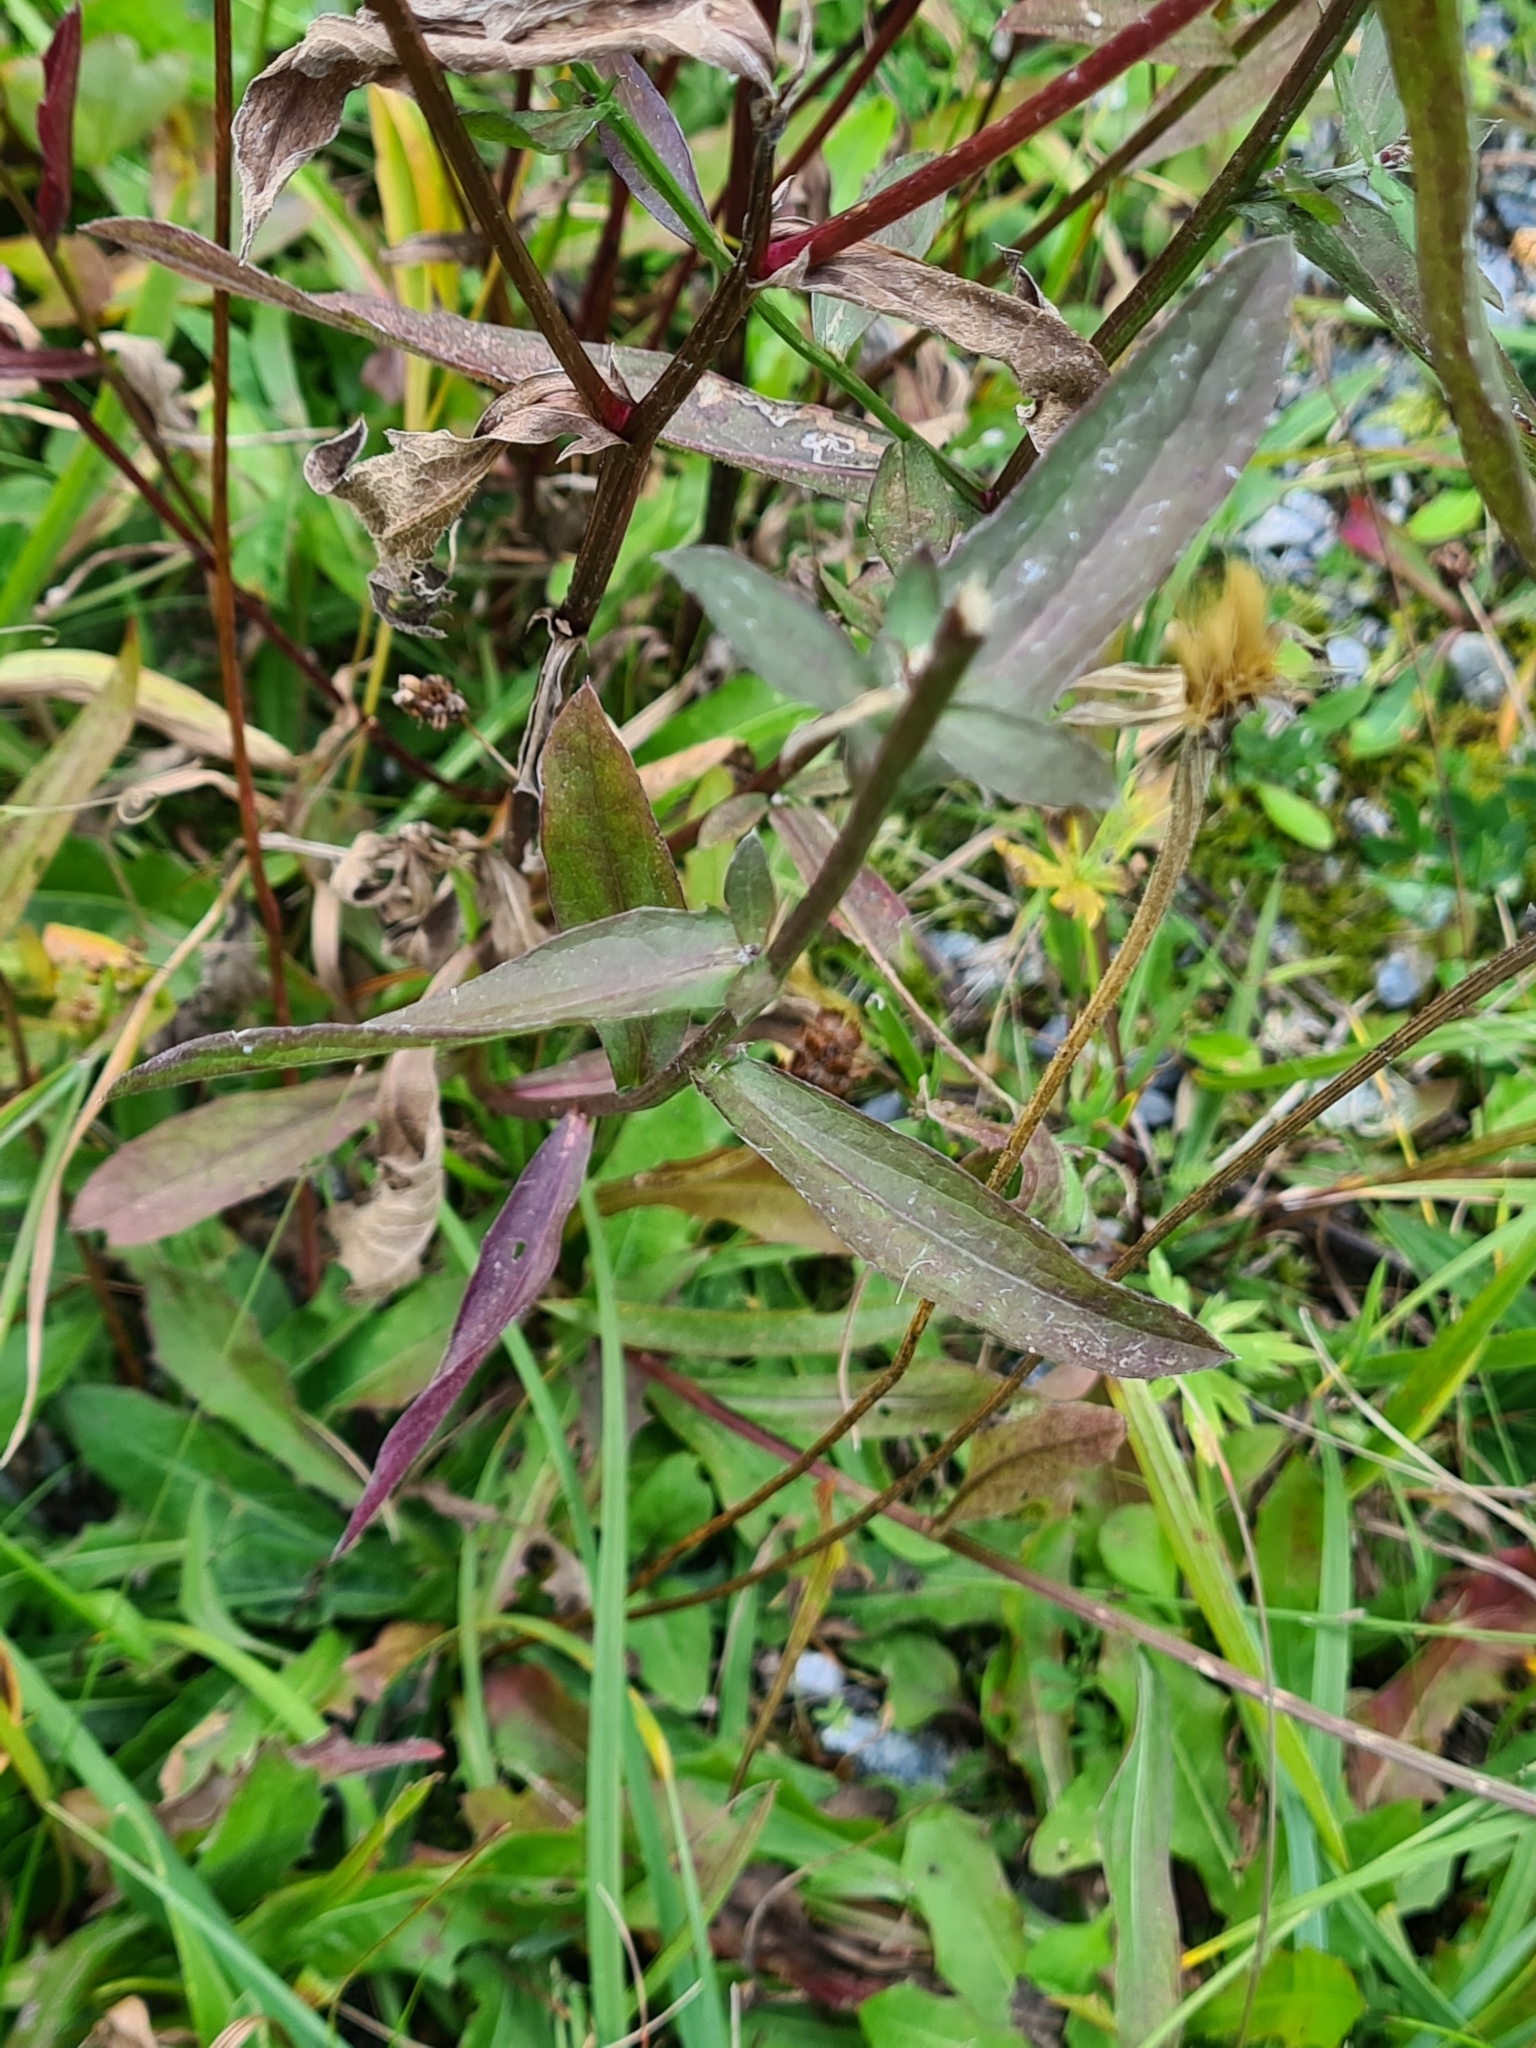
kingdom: Plantae
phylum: Tracheophyta
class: Magnoliopsida
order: Asterales
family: Asteraceae
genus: Centaurea
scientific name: Centaurea jacea
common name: Brown knapweed
